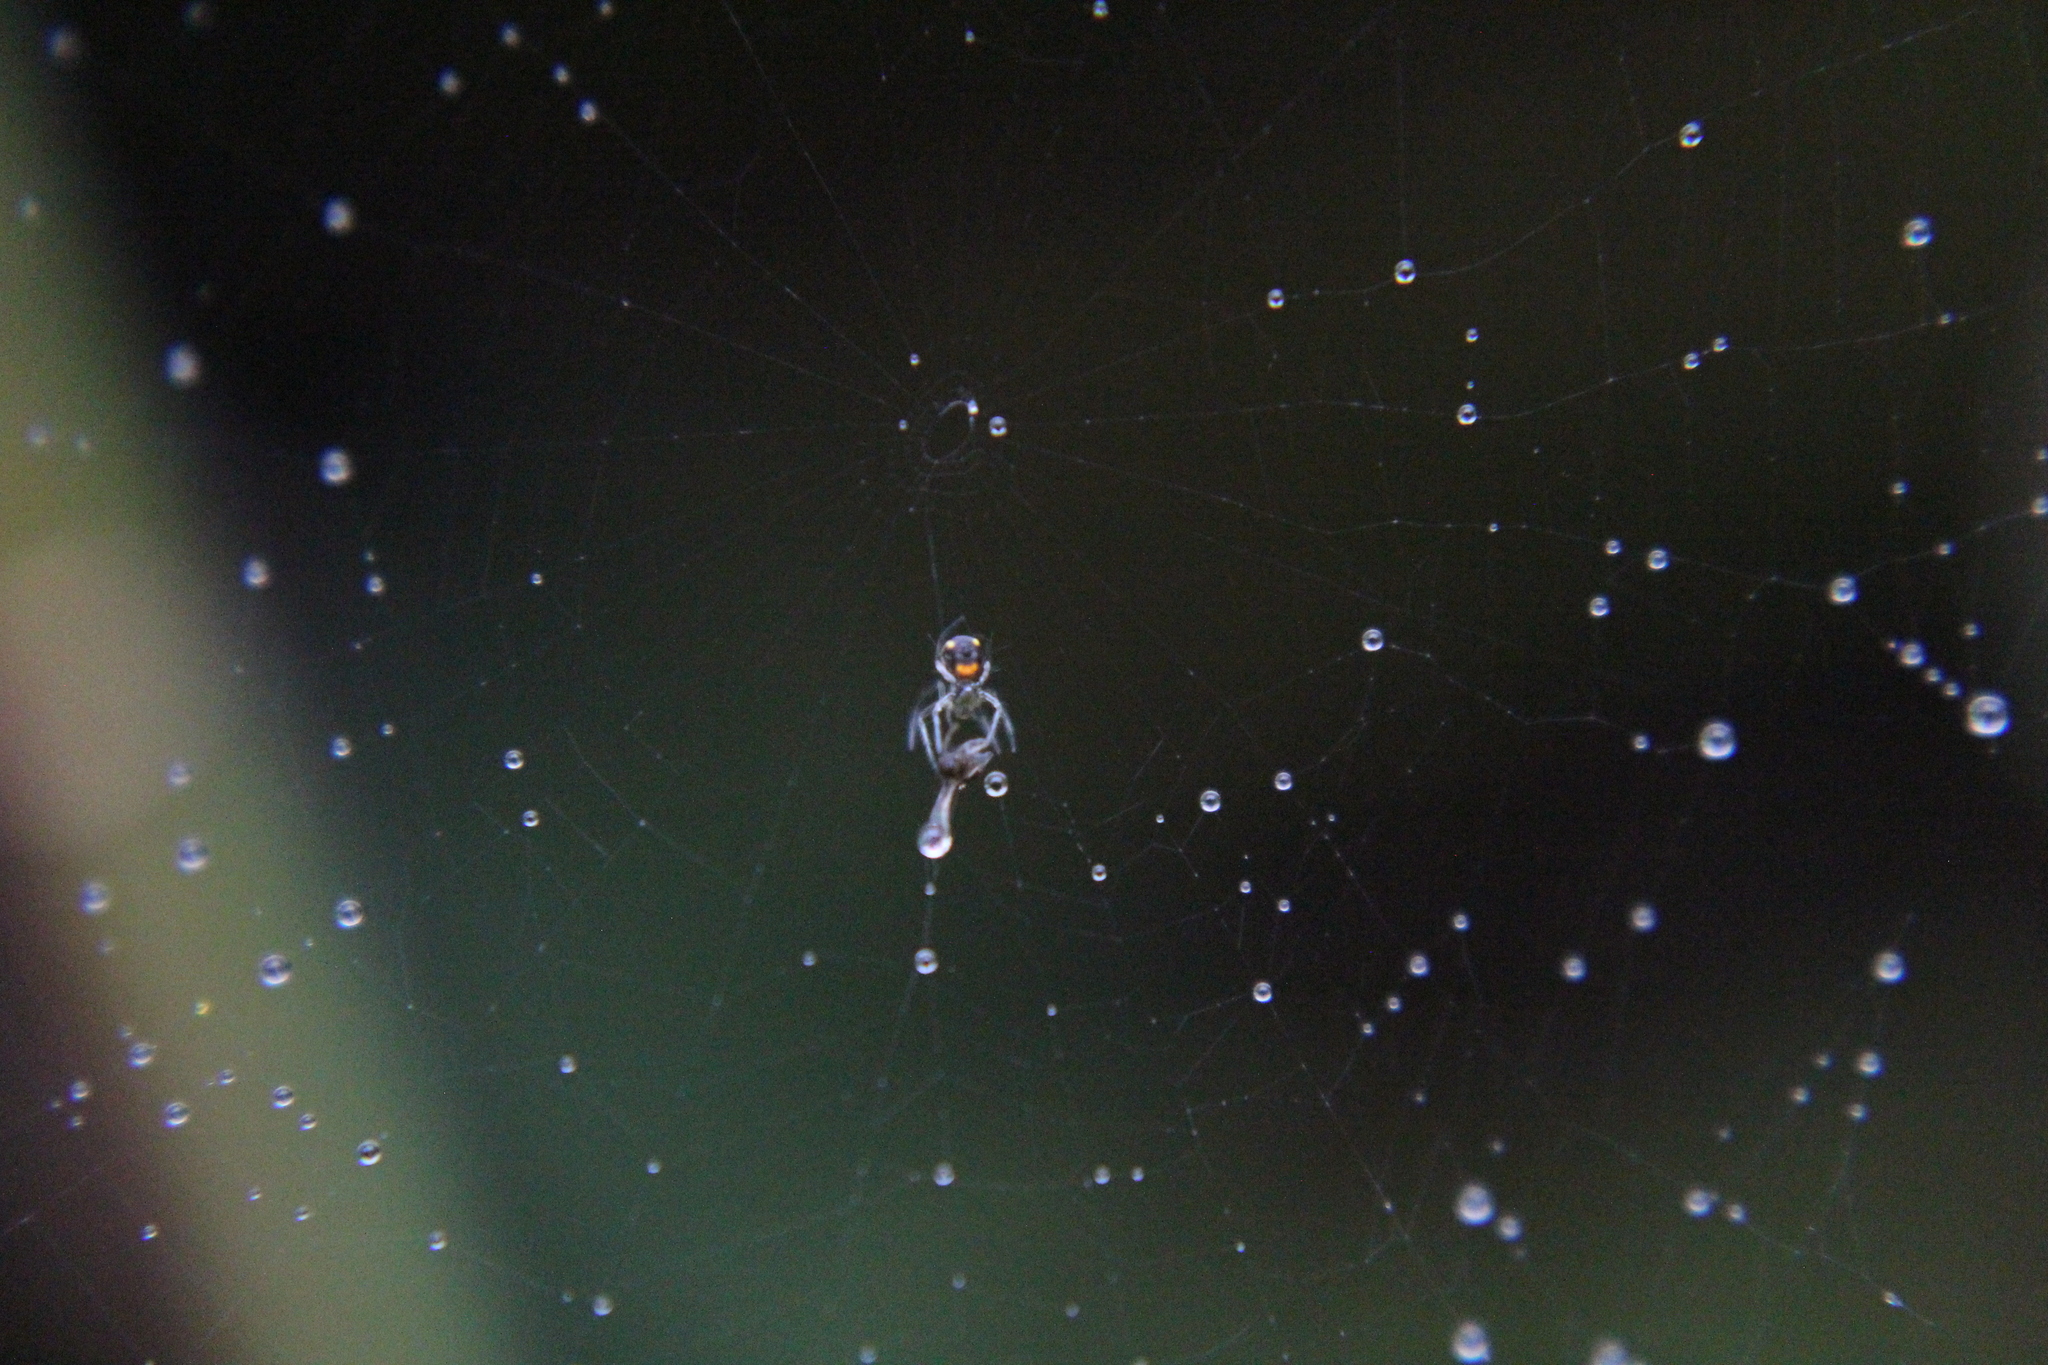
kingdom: Animalia
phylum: Arthropoda
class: Arachnida
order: Araneae
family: Tetragnathidae
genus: Leucauge
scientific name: Leucauge venusta
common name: Longjawed orb weavers
